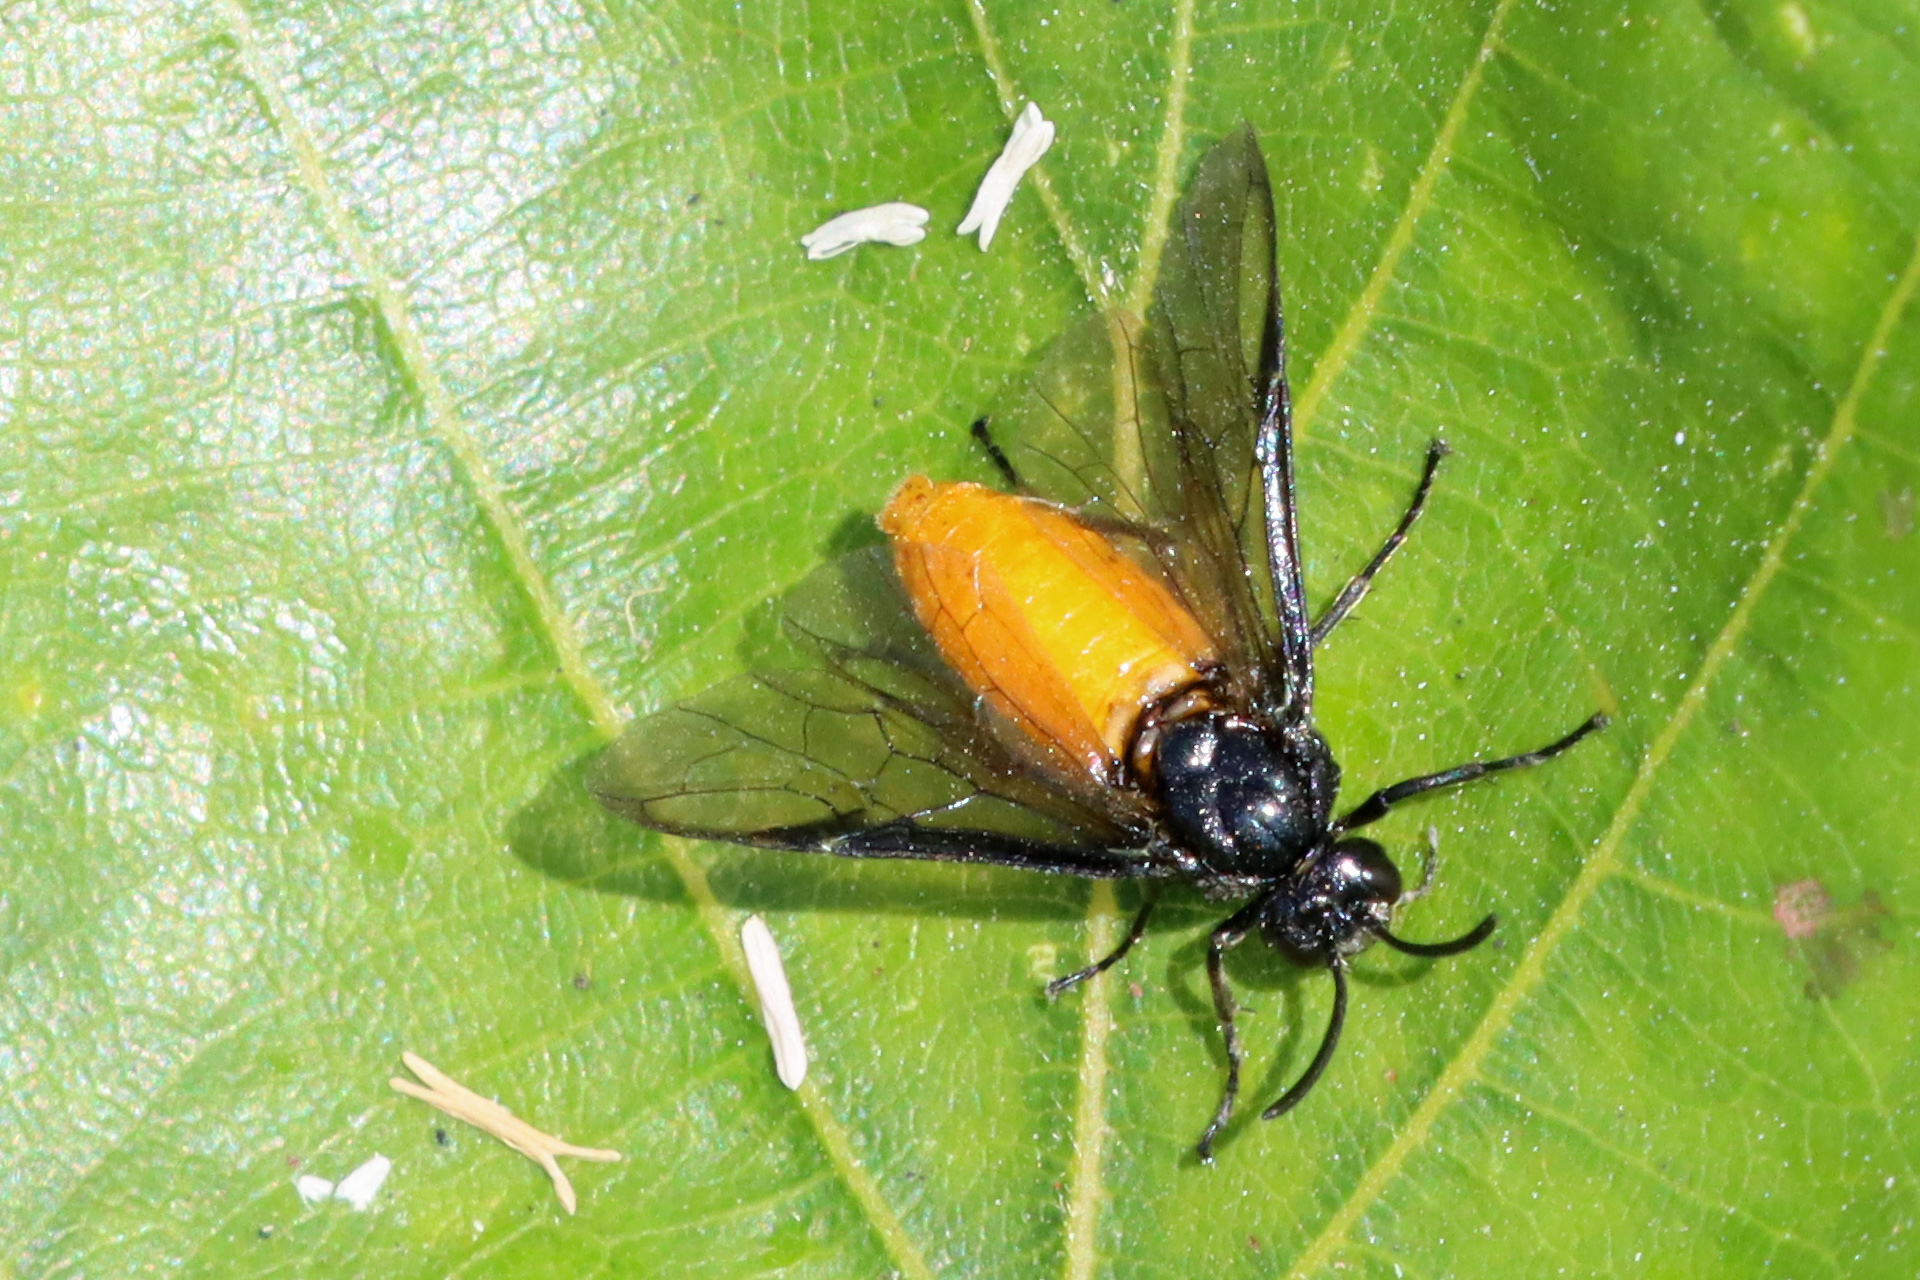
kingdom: Animalia
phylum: Arthropoda
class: Insecta
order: Hymenoptera
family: Argidae
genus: Arge
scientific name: Arge pagana
